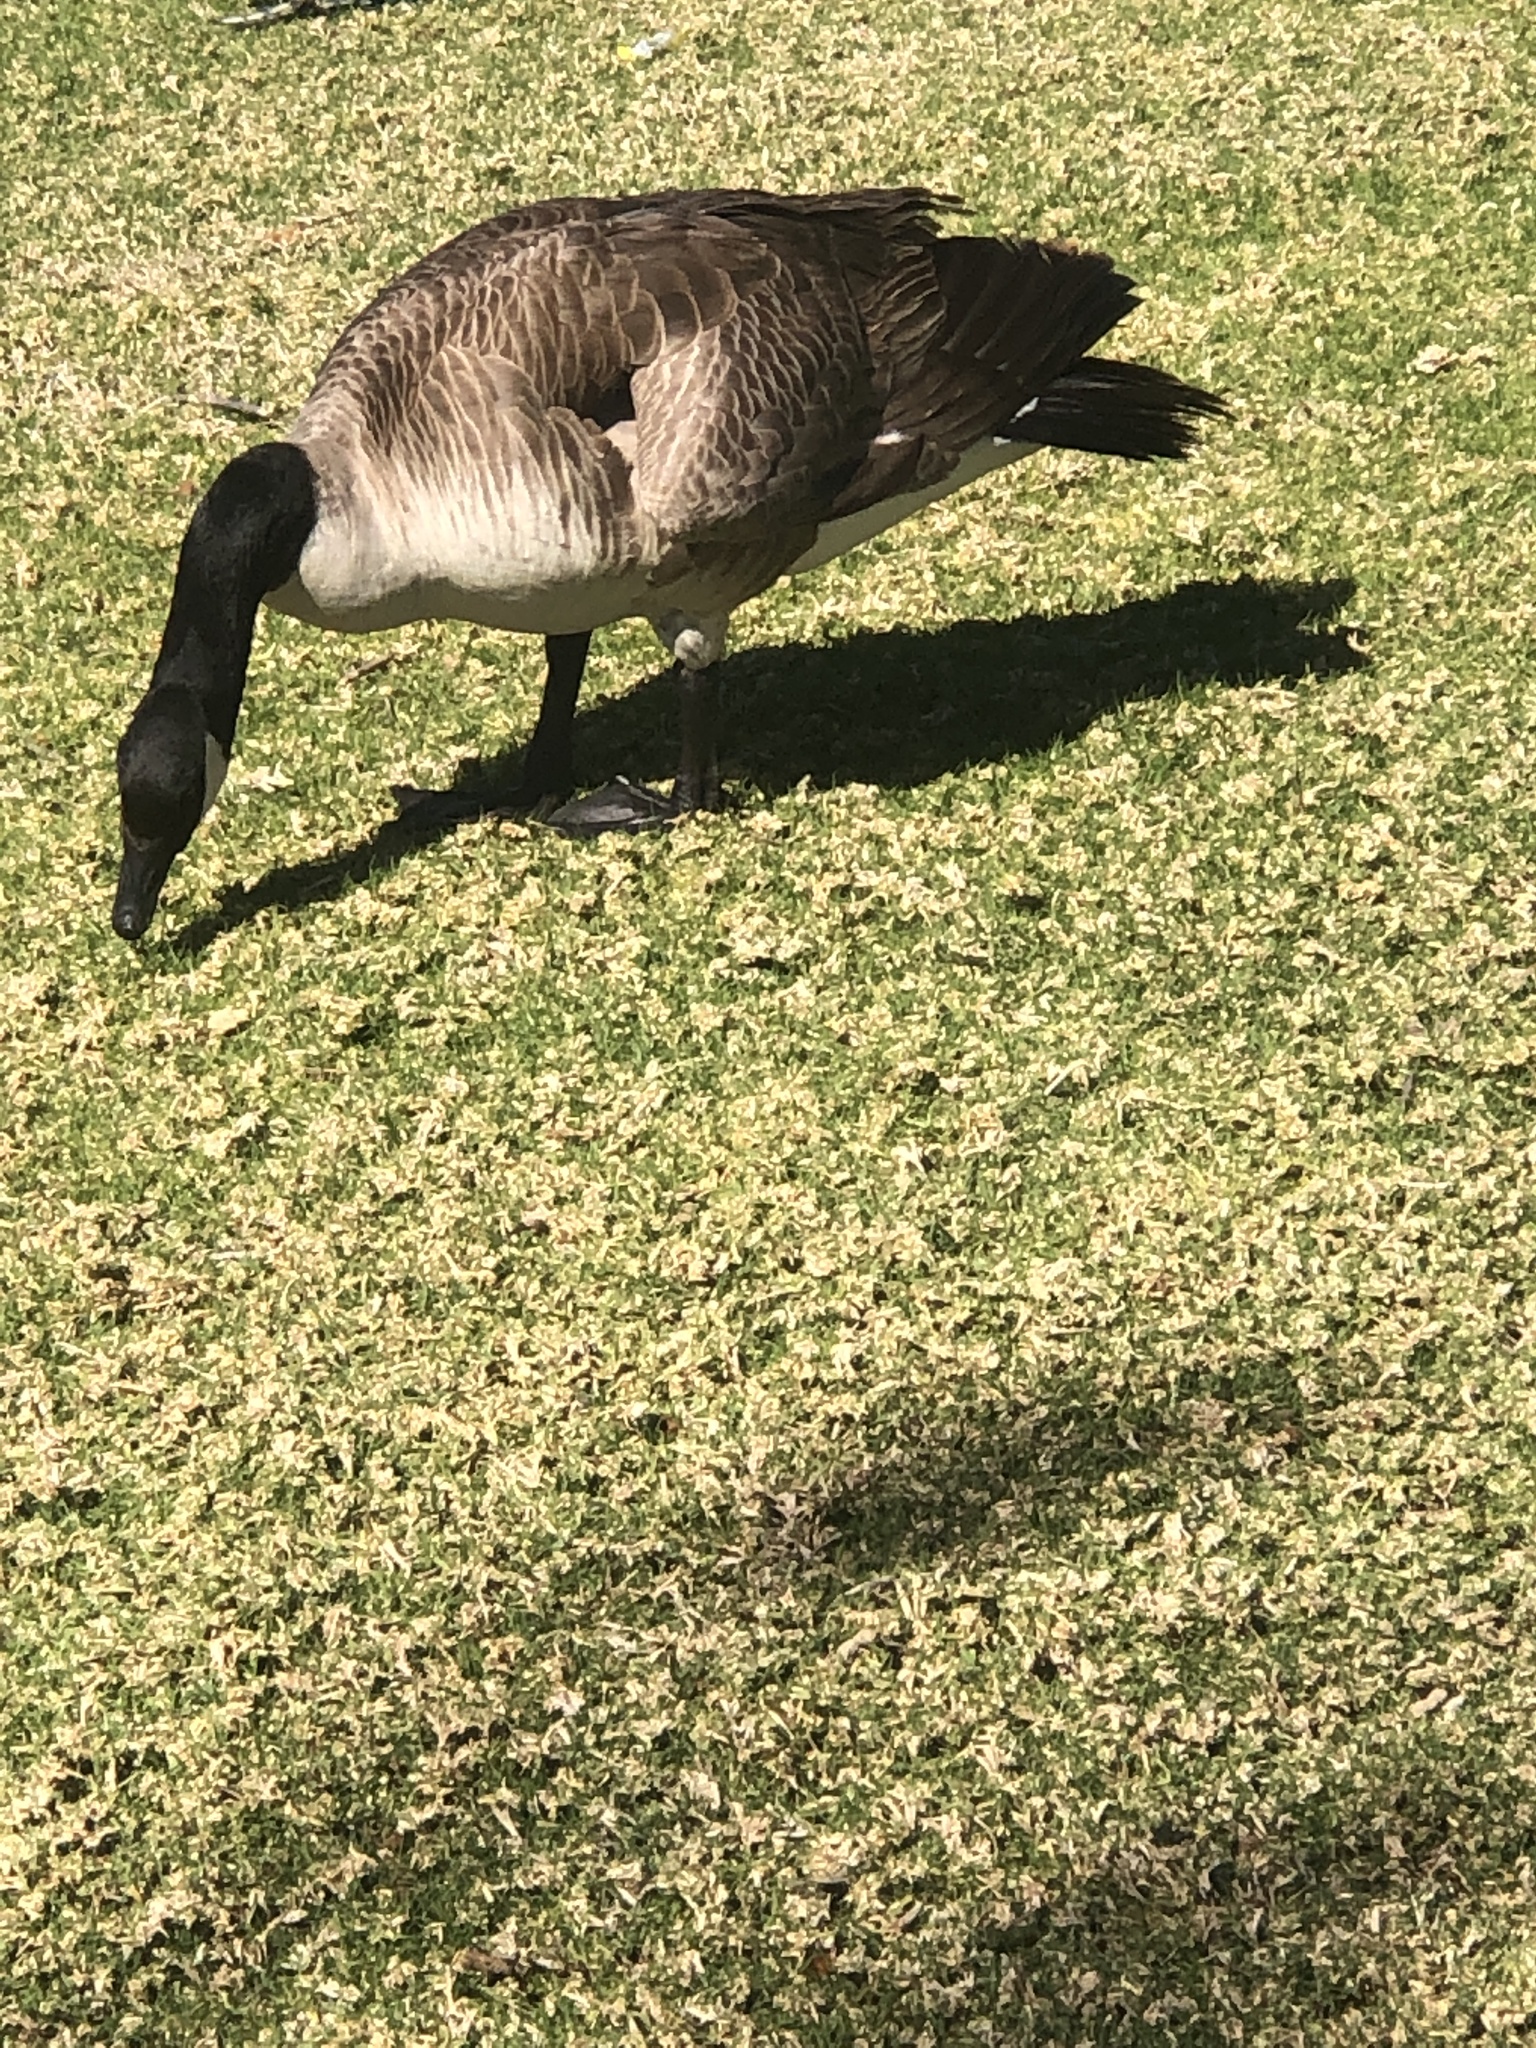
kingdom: Animalia
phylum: Chordata
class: Aves
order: Anseriformes
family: Anatidae
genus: Branta
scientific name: Branta canadensis
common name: Canada goose
